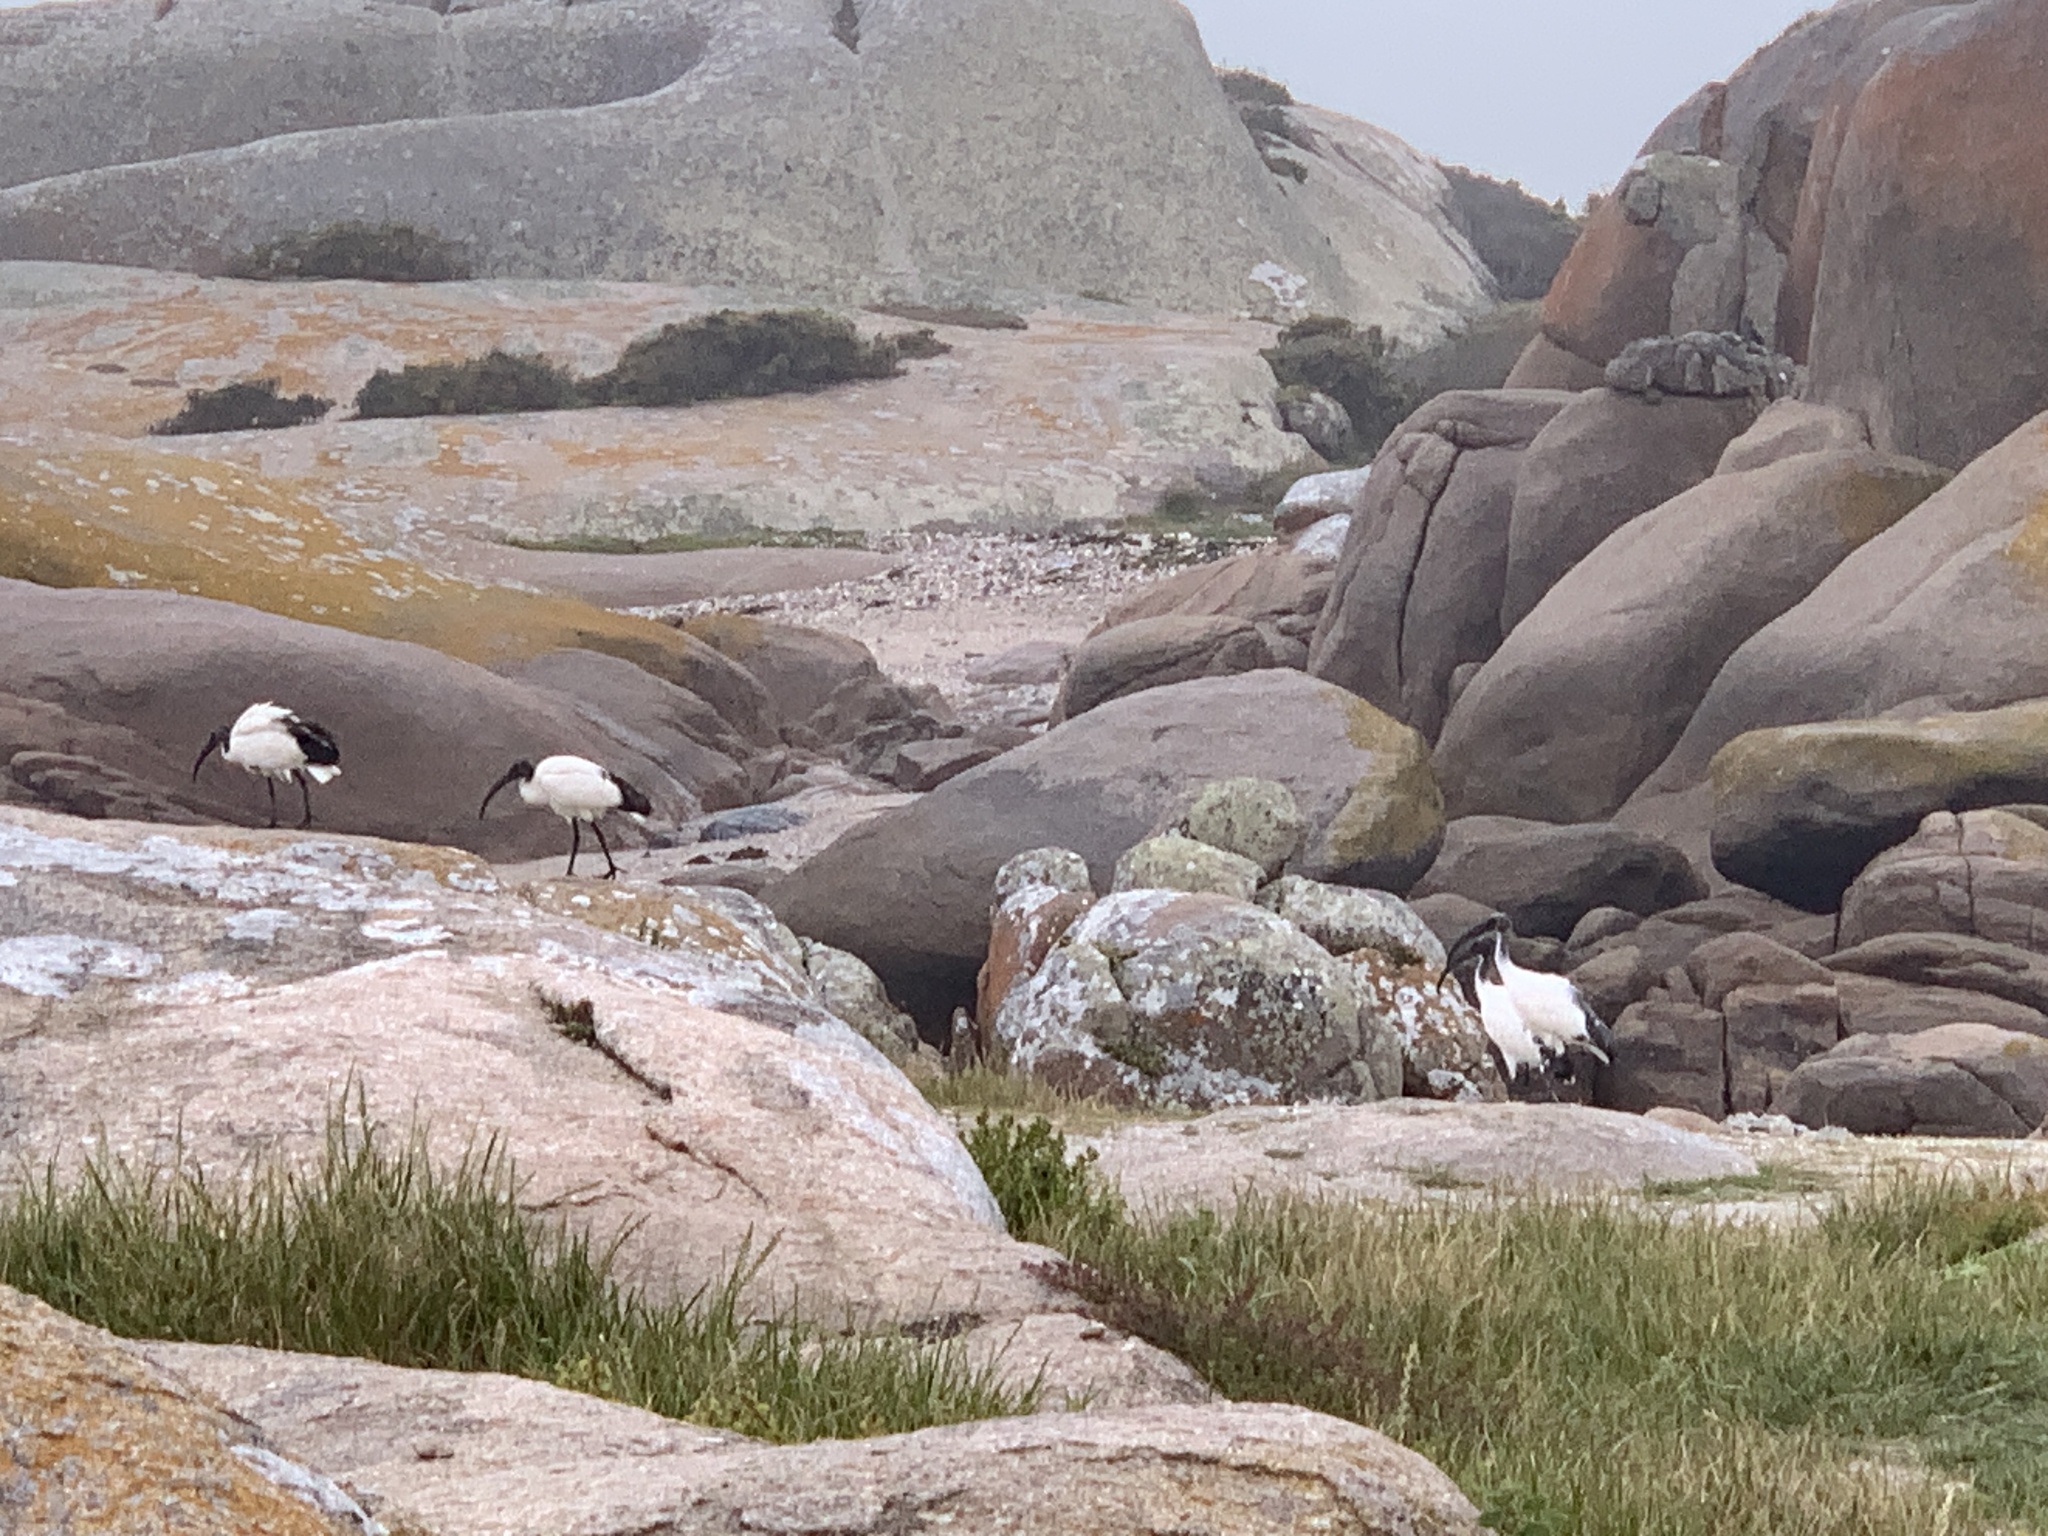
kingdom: Animalia
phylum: Chordata
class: Aves
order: Pelecaniformes
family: Threskiornithidae
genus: Threskiornis
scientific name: Threskiornis aethiopicus
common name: Sacred ibis
